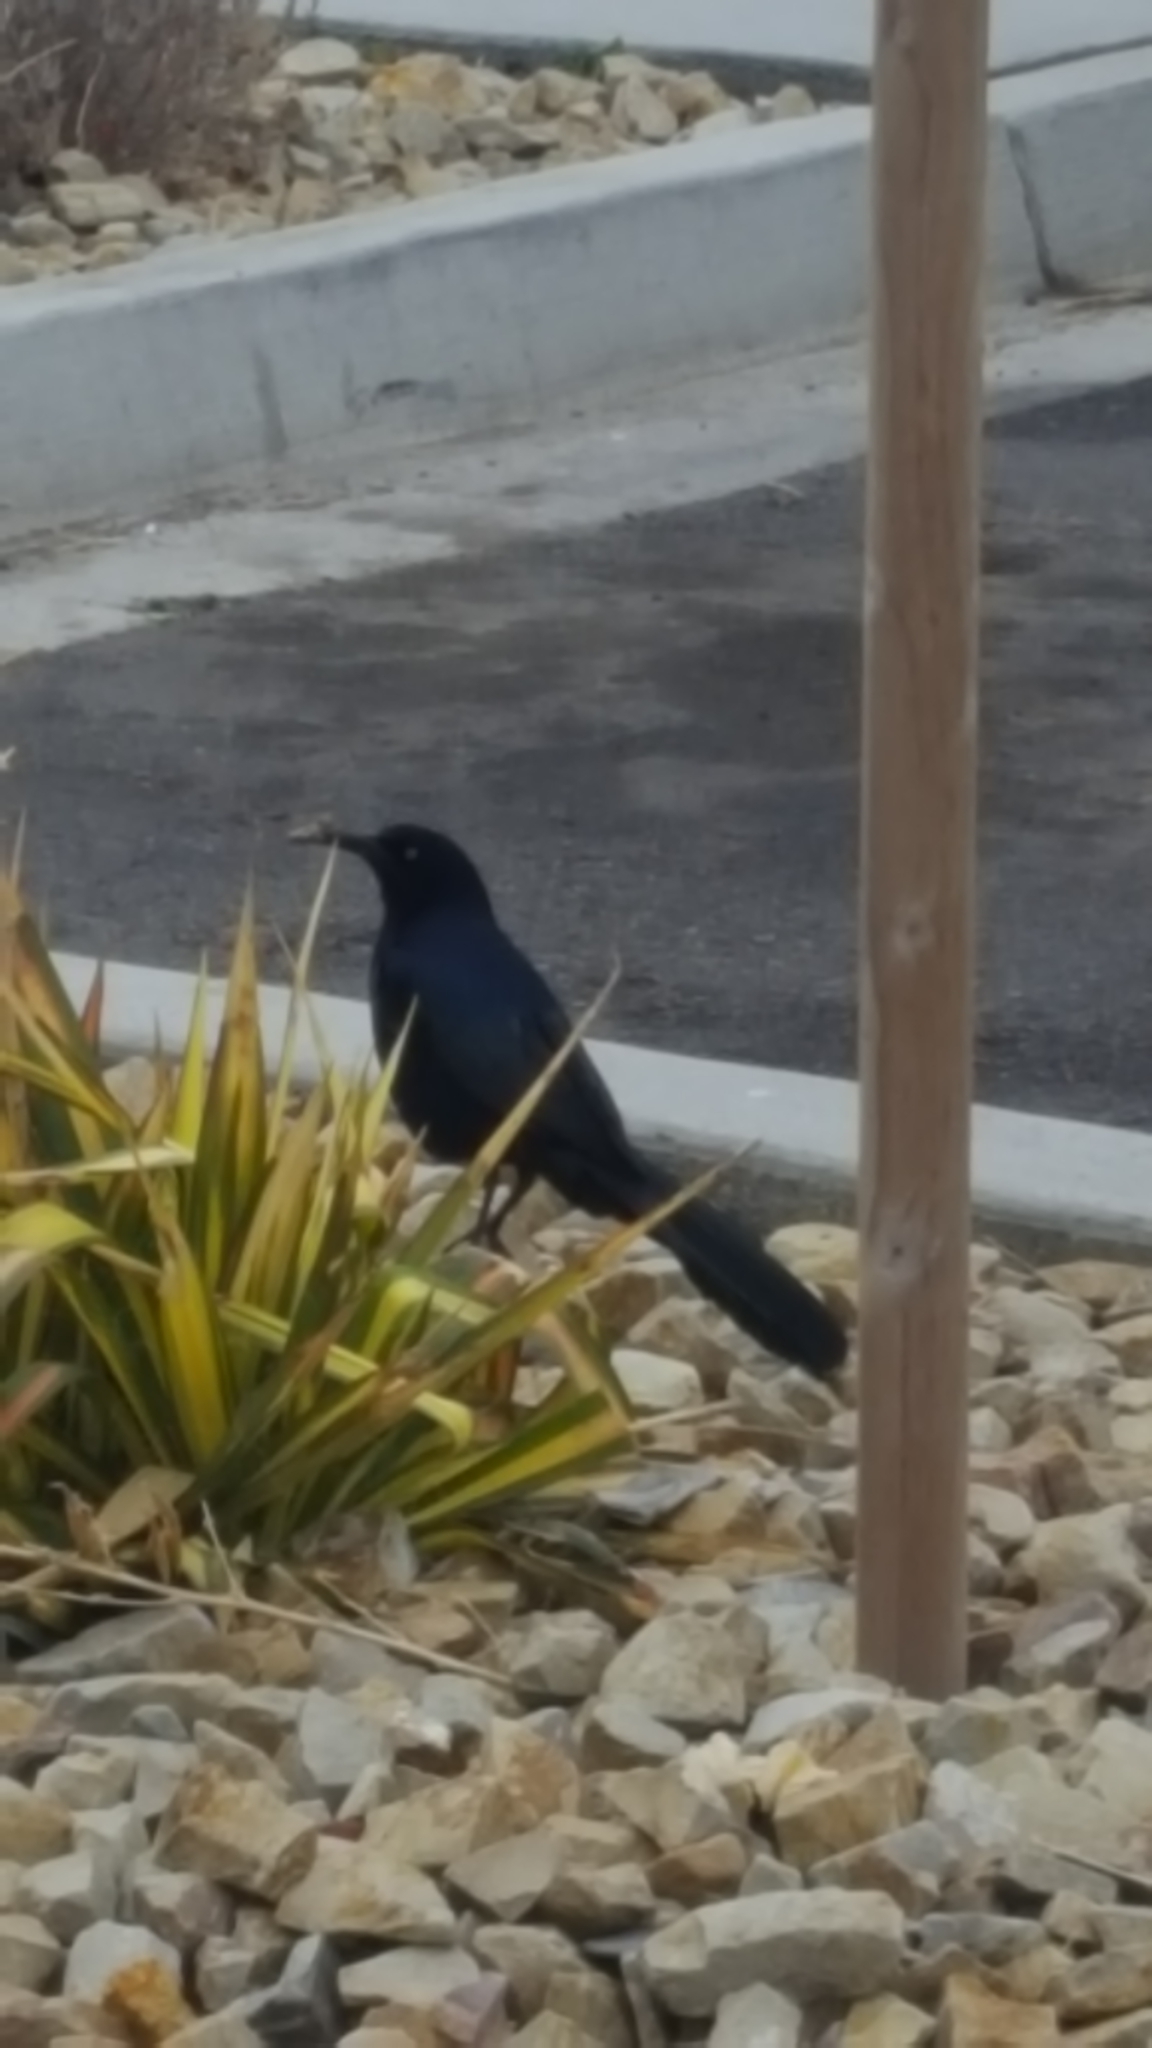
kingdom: Animalia
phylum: Chordata
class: Aves
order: Passeriformes
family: Icteridae
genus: Quiscalus
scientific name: Quiscalus mexicanus
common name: Great-tailed grackle
